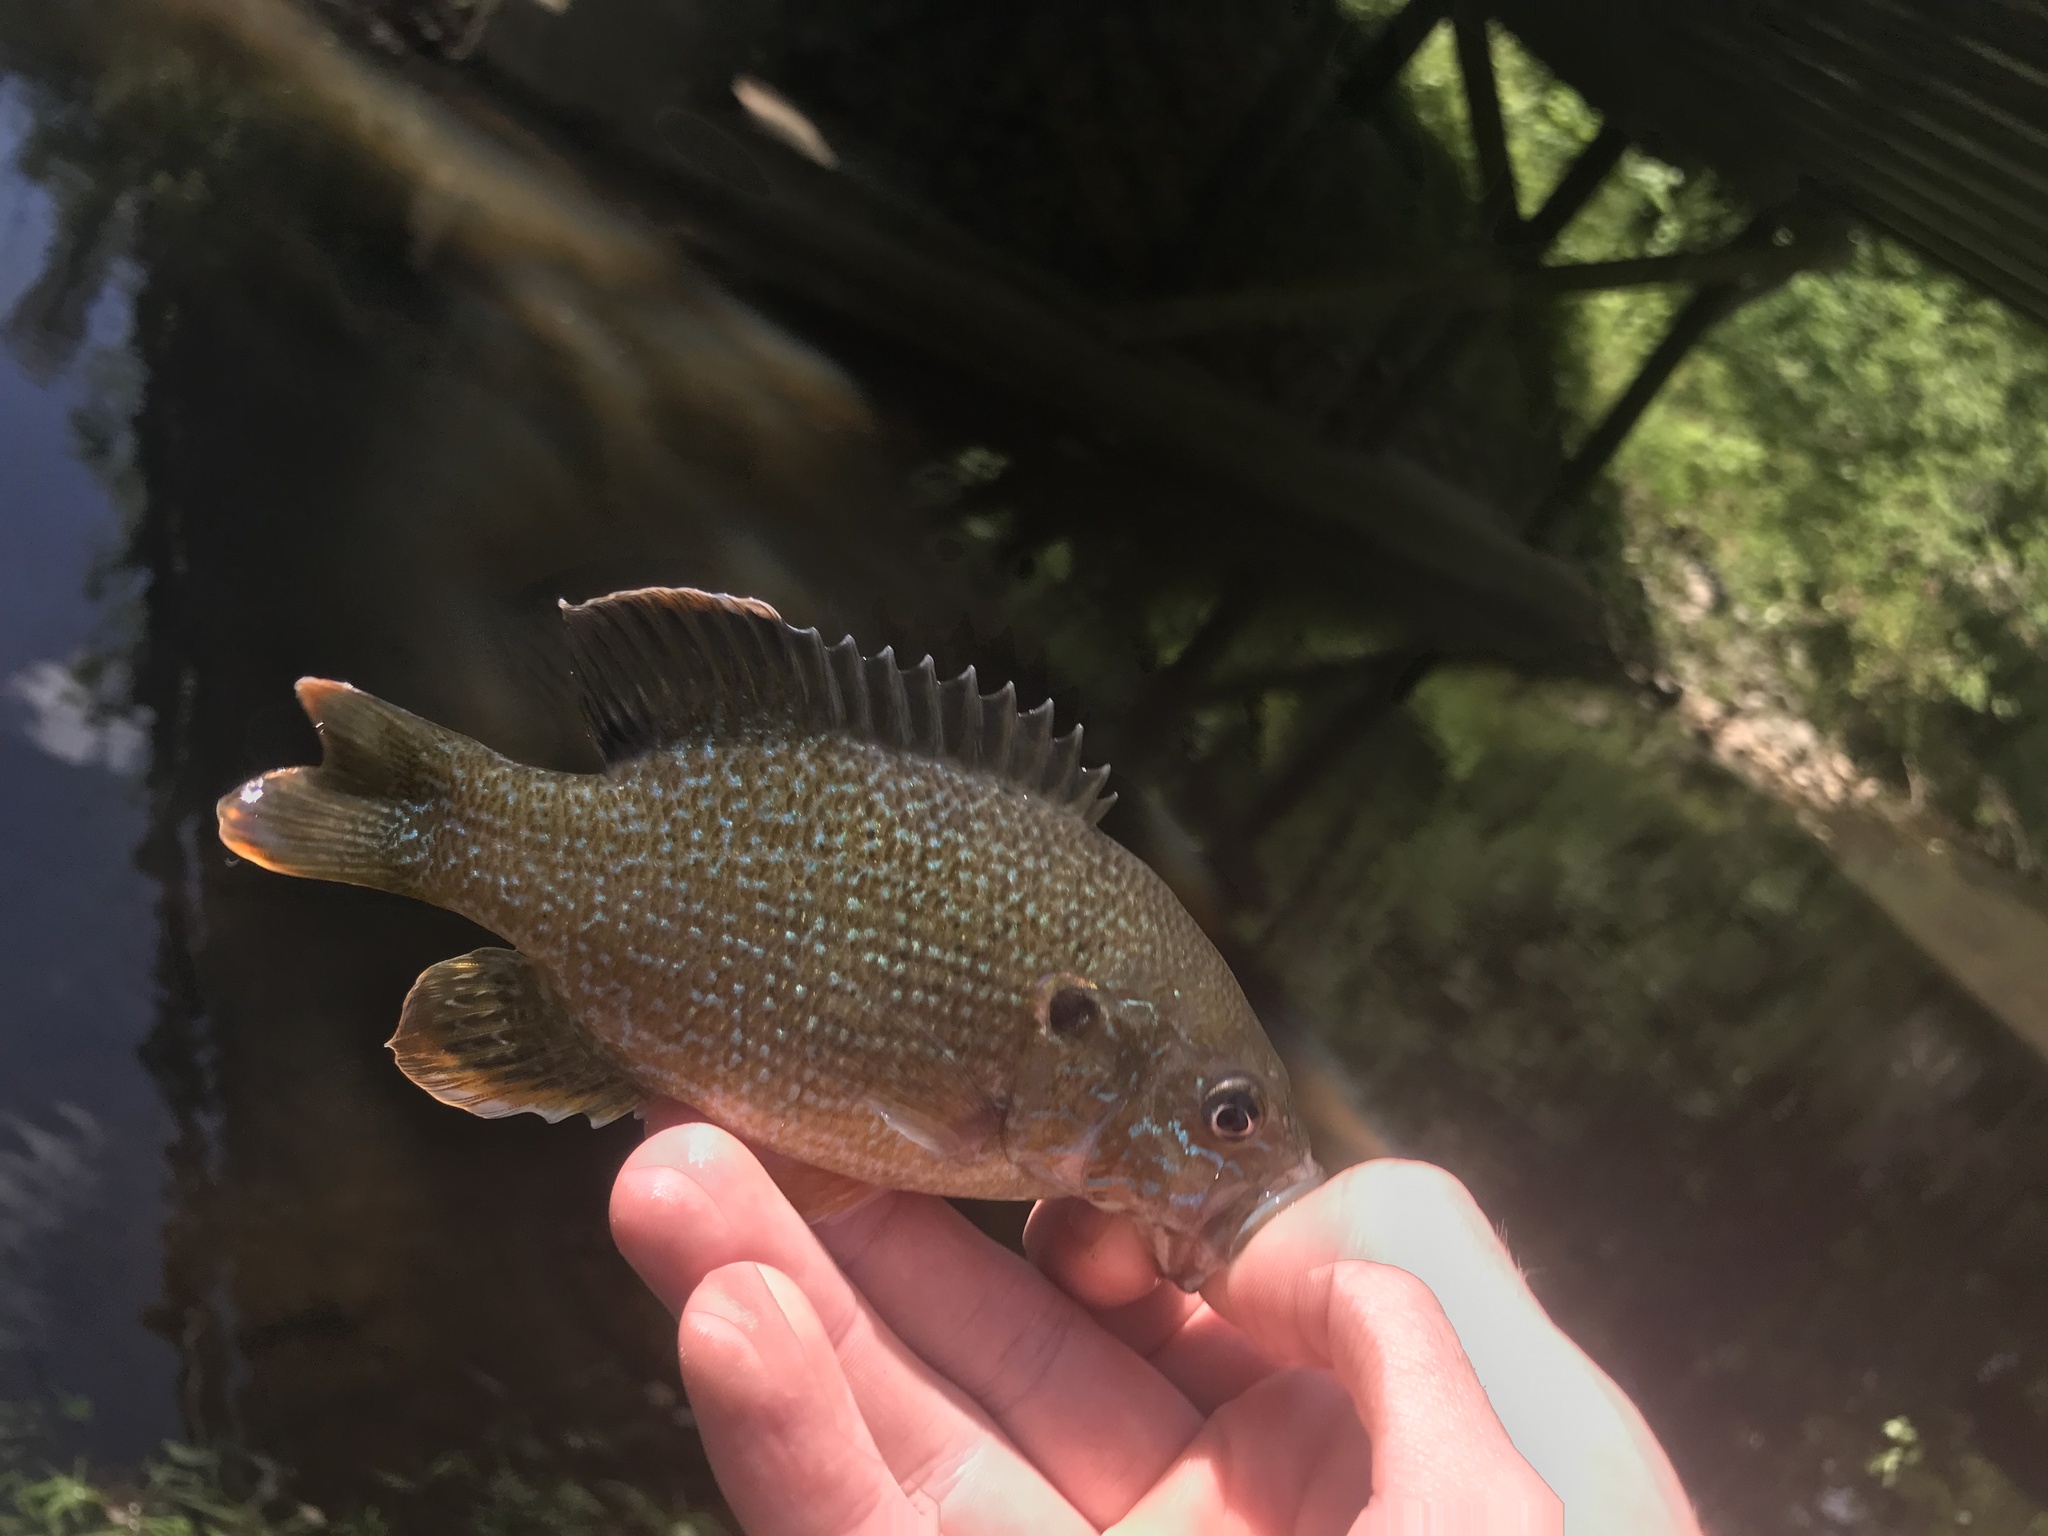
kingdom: Animalia
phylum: Chordata
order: Perciformes
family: Centrarchidae
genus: Lepomis
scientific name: Lepomis cyanellus
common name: Green sunfish
